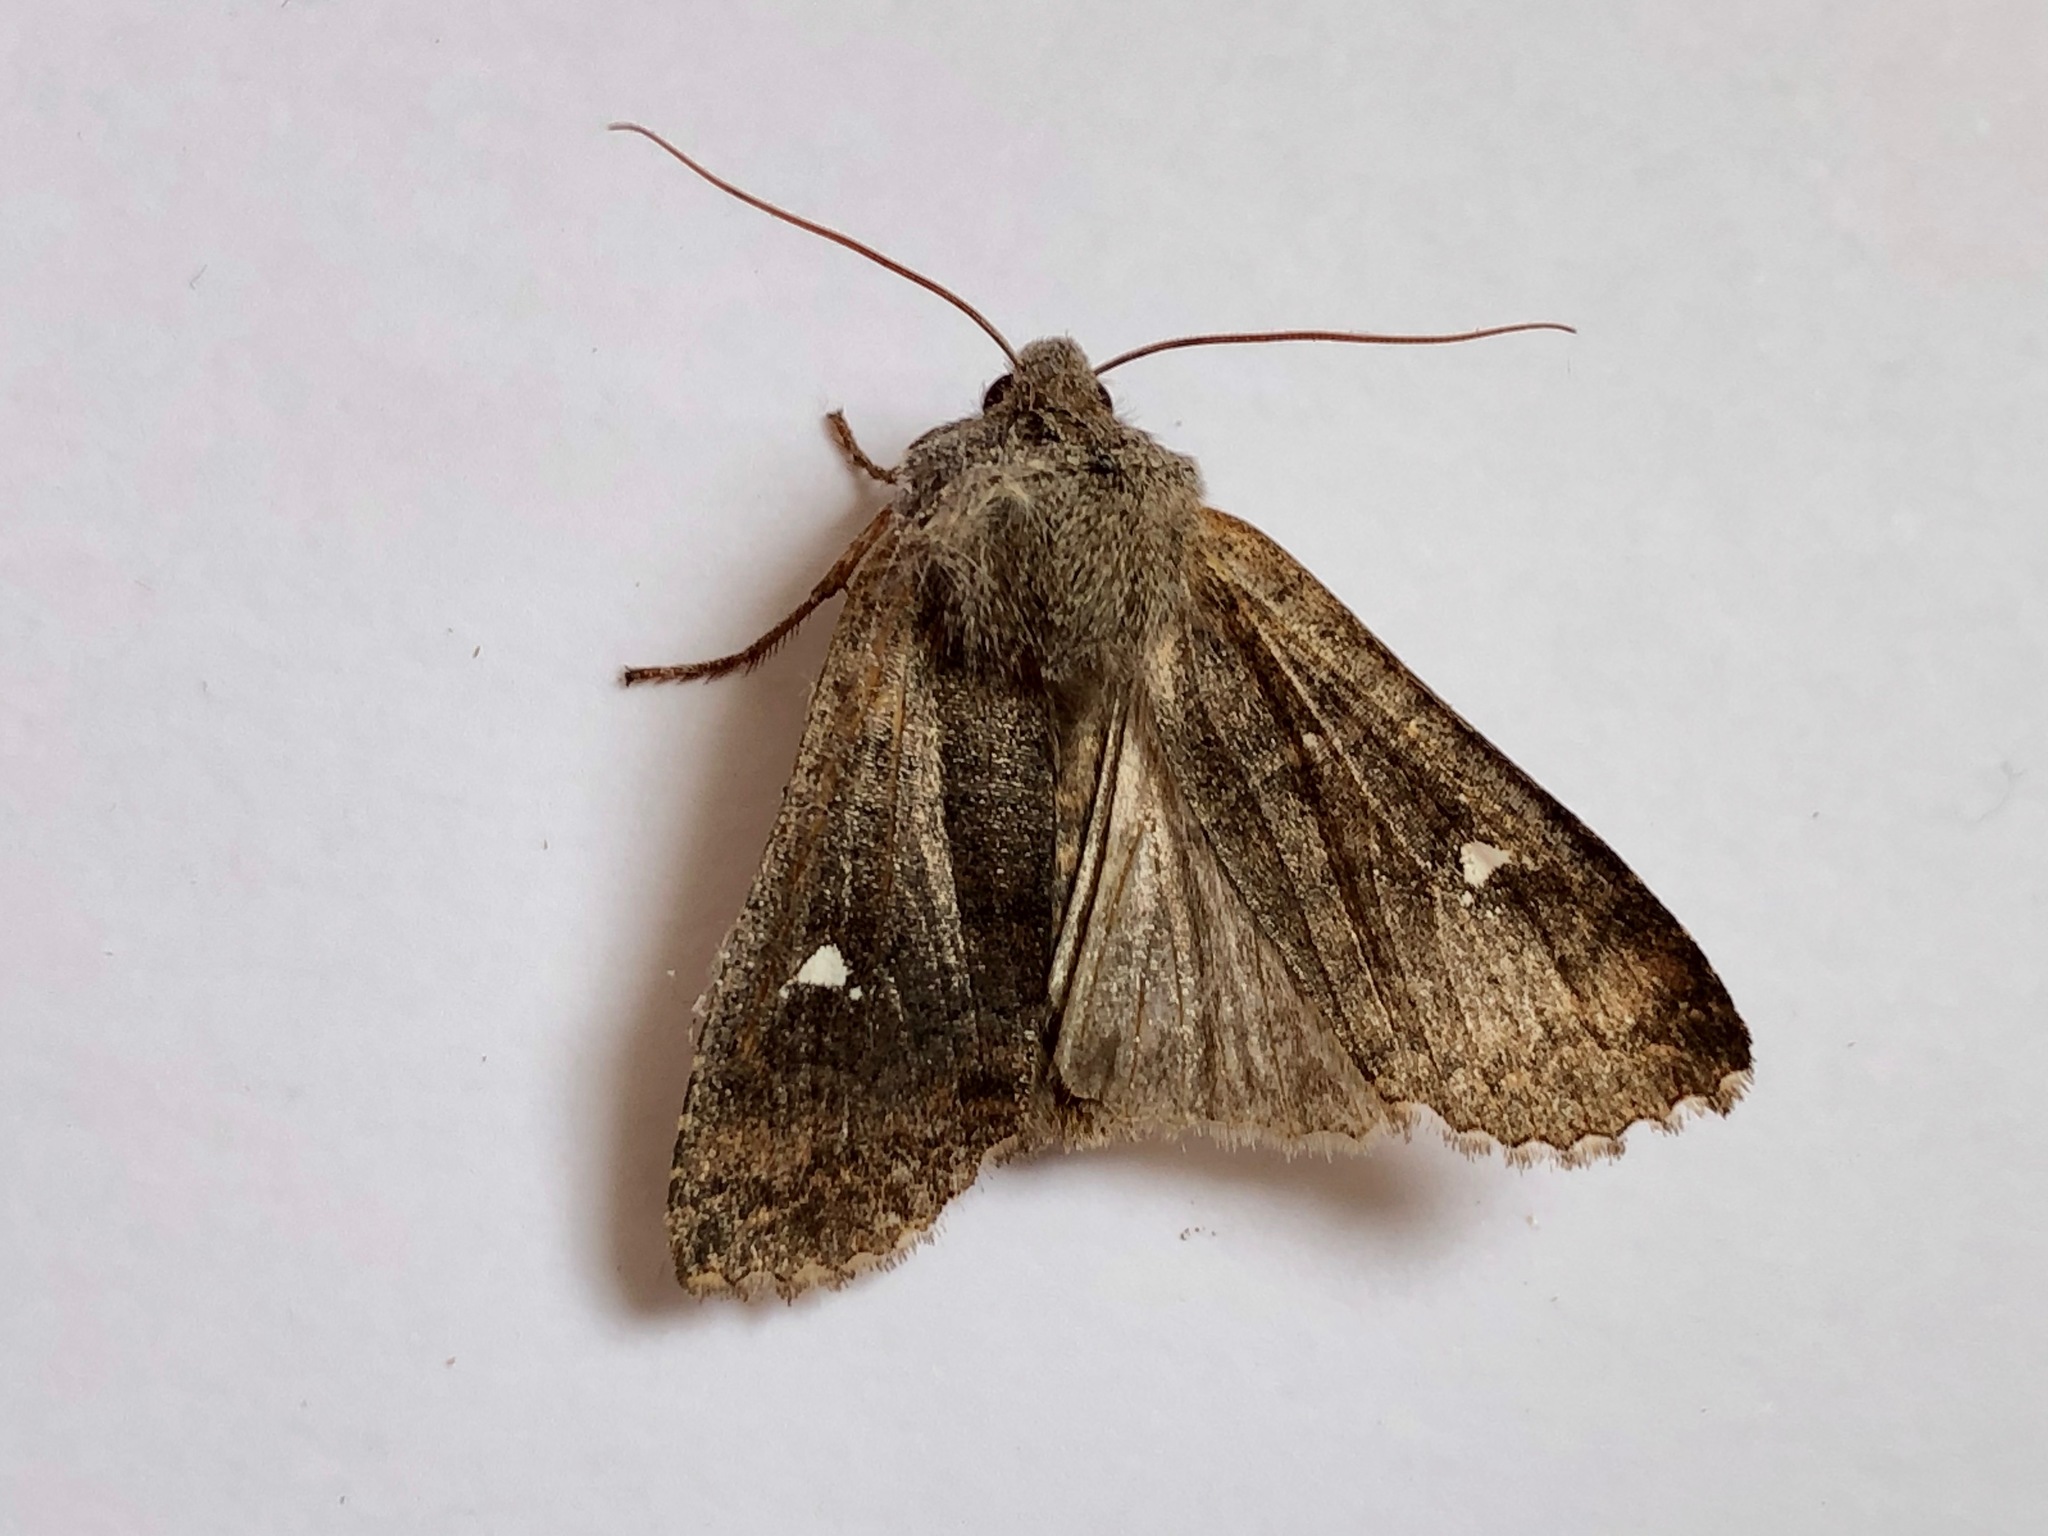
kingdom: Animalia
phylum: Arthropoda
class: Insecta
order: Lepidoptera
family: Noctuidae
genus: Eupsilia
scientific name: Eupsilia transversa
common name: Satellite
